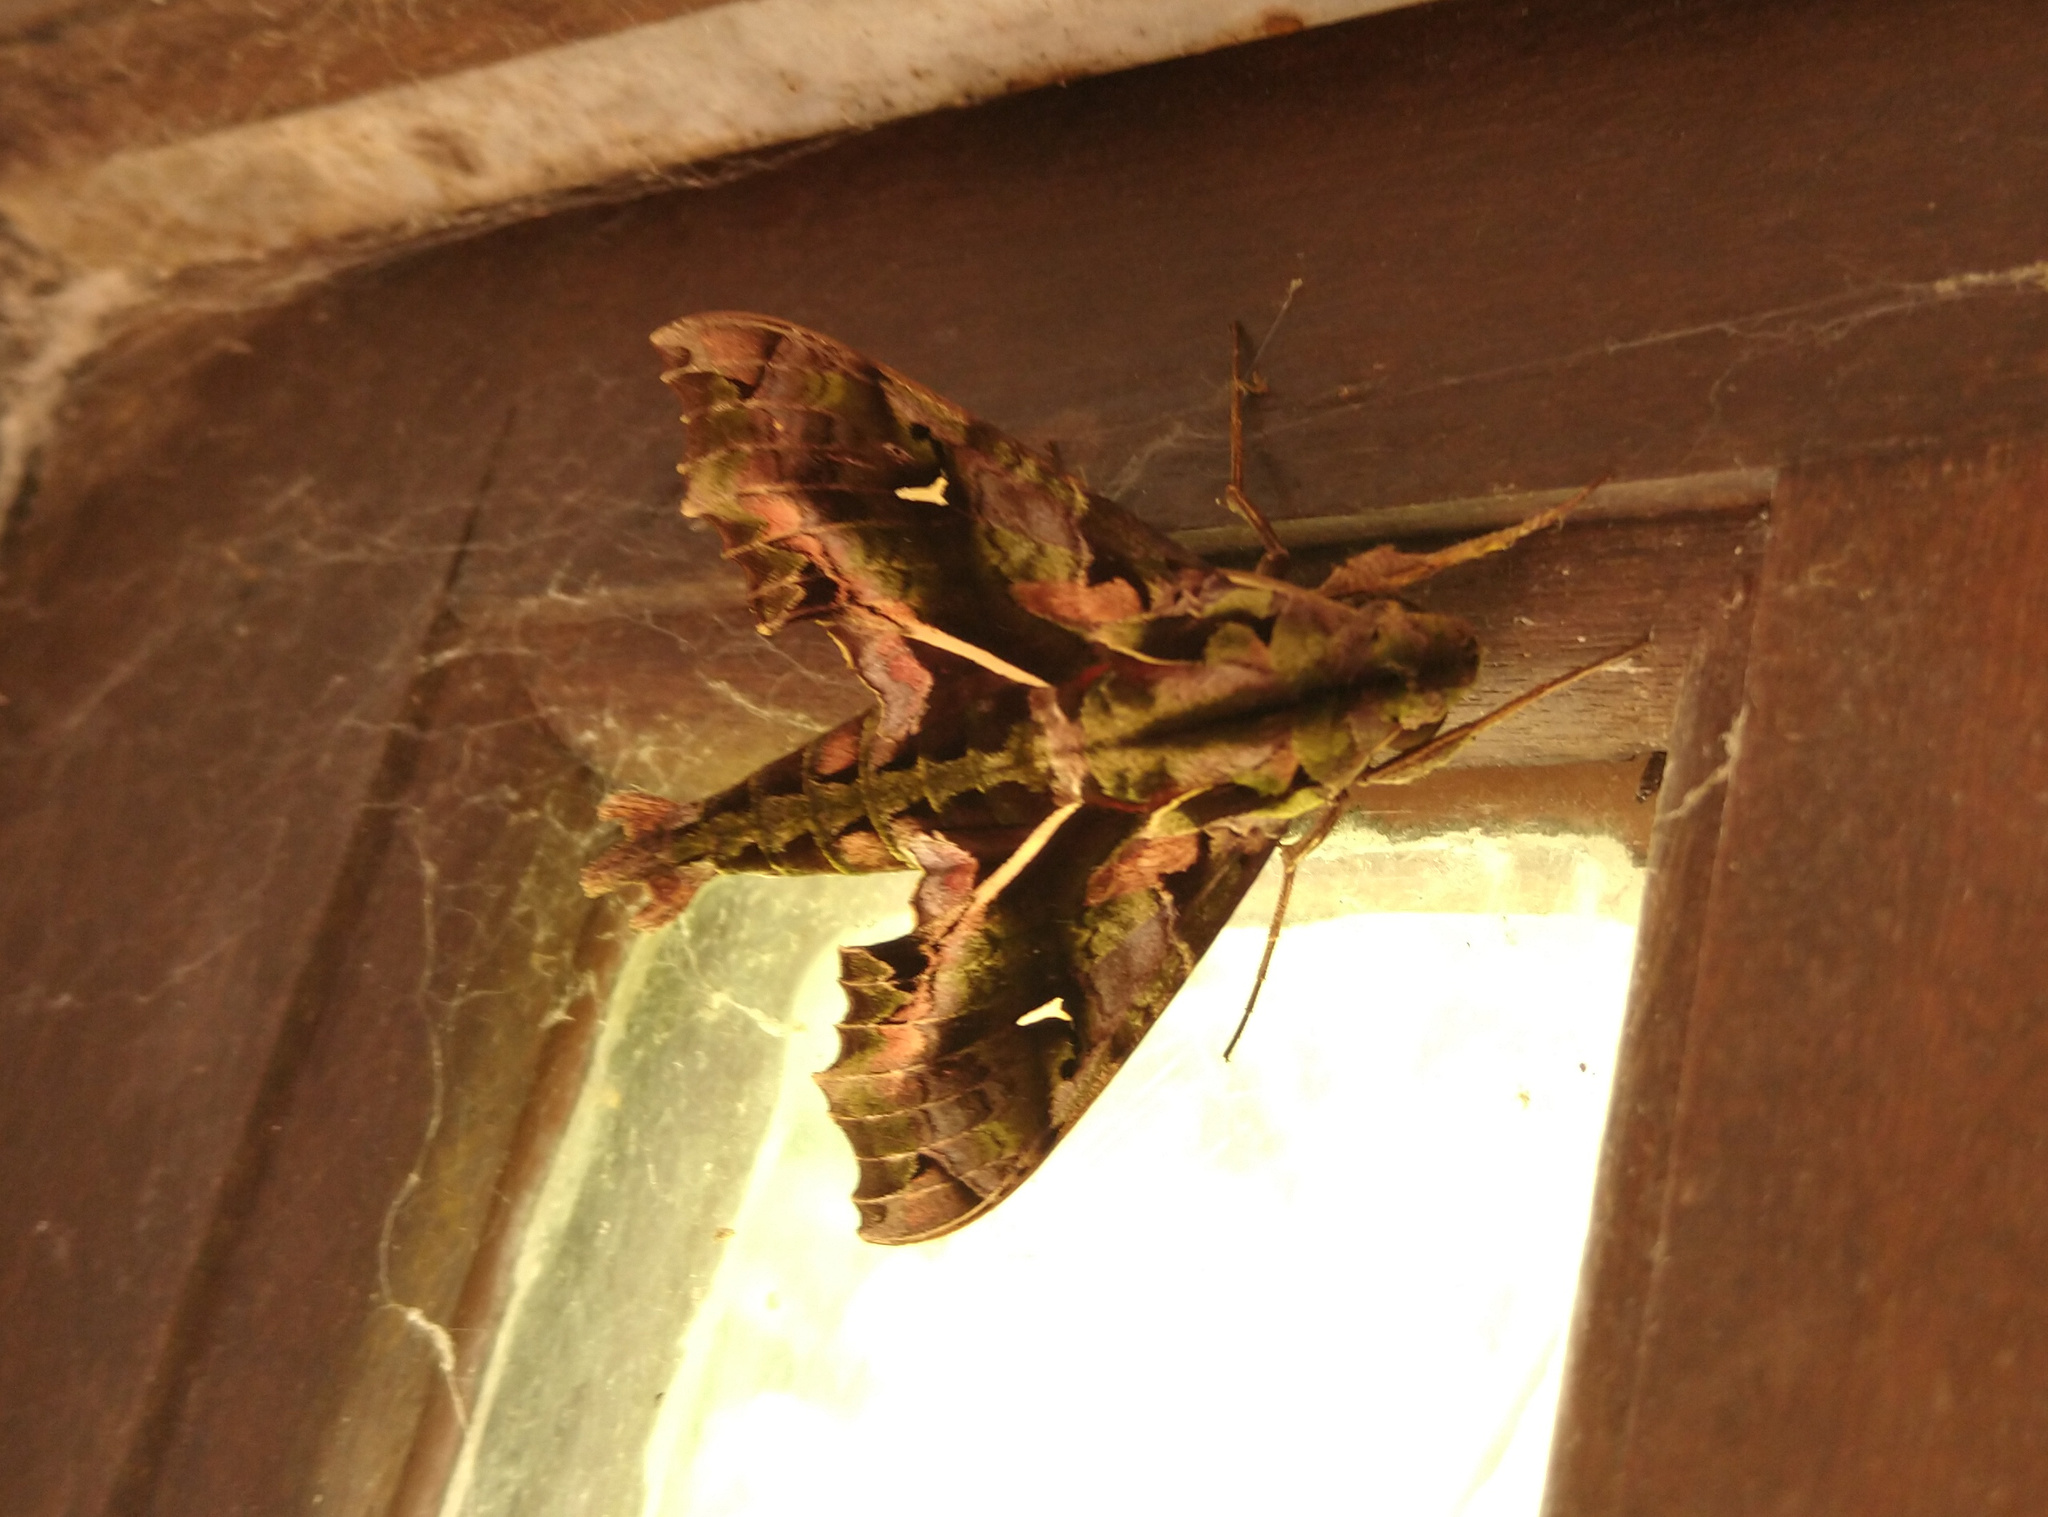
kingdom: Animalia
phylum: Arthropoda
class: Insecta
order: Lepidoptera
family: Sphingidae
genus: Hemeroplanes
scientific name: Hemeroplanes ornatus
